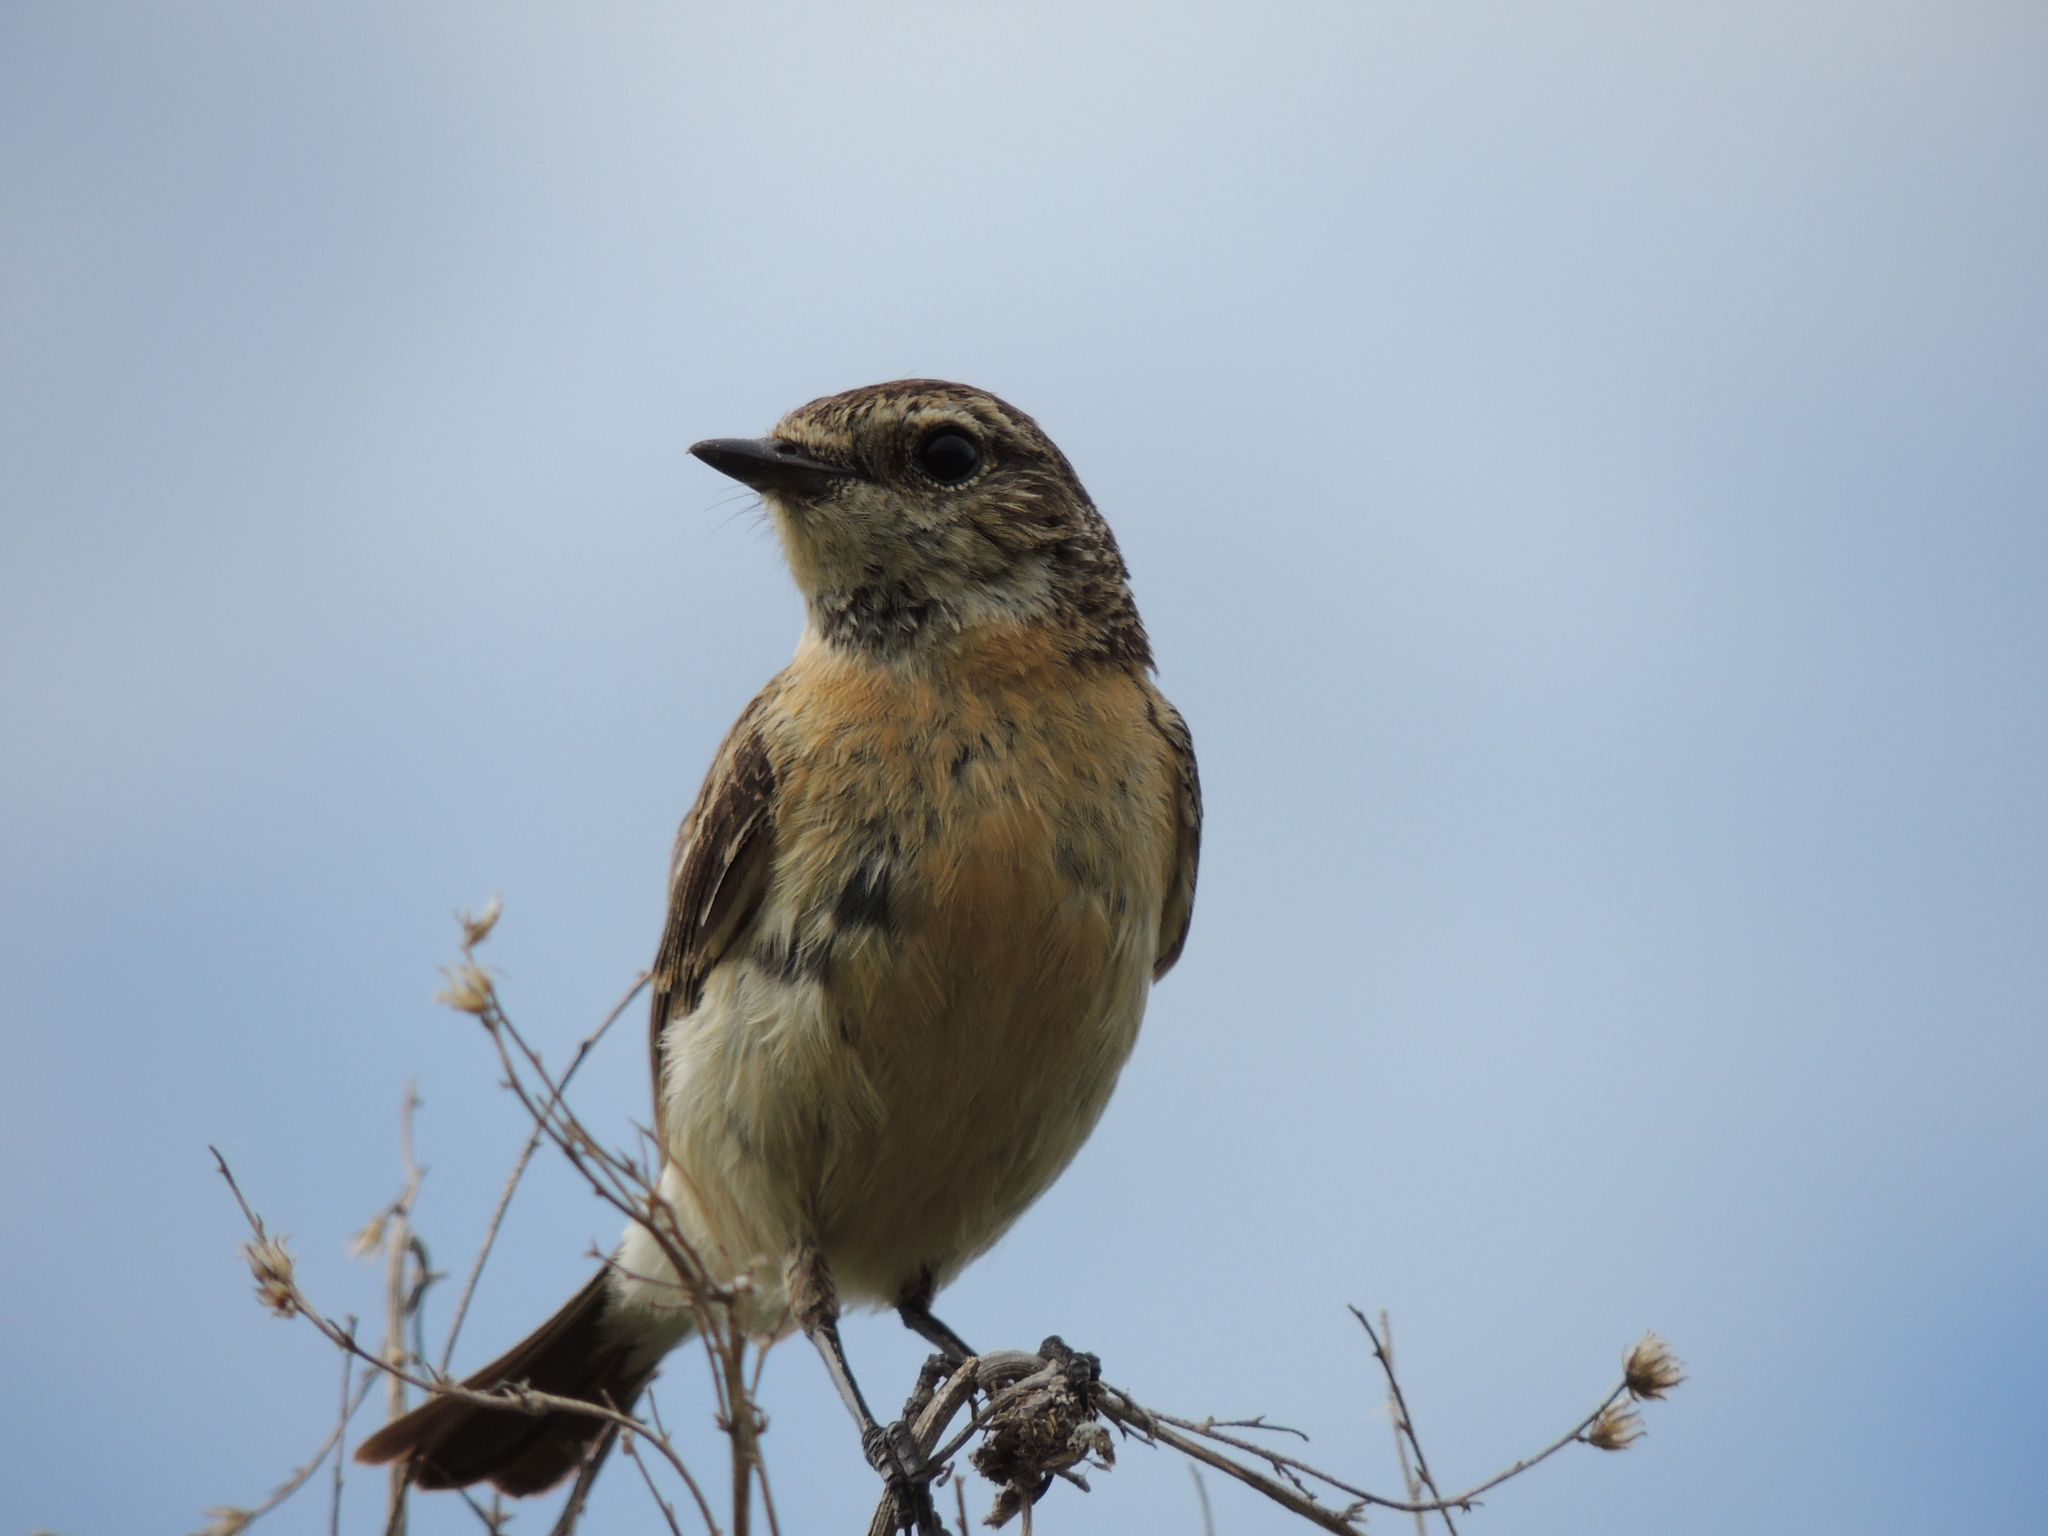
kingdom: Animalia
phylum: Chordata
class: Aves
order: Passeriformes
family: Acrocephalidae
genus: Iduna
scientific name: Iduna caligata
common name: Booted warbler
